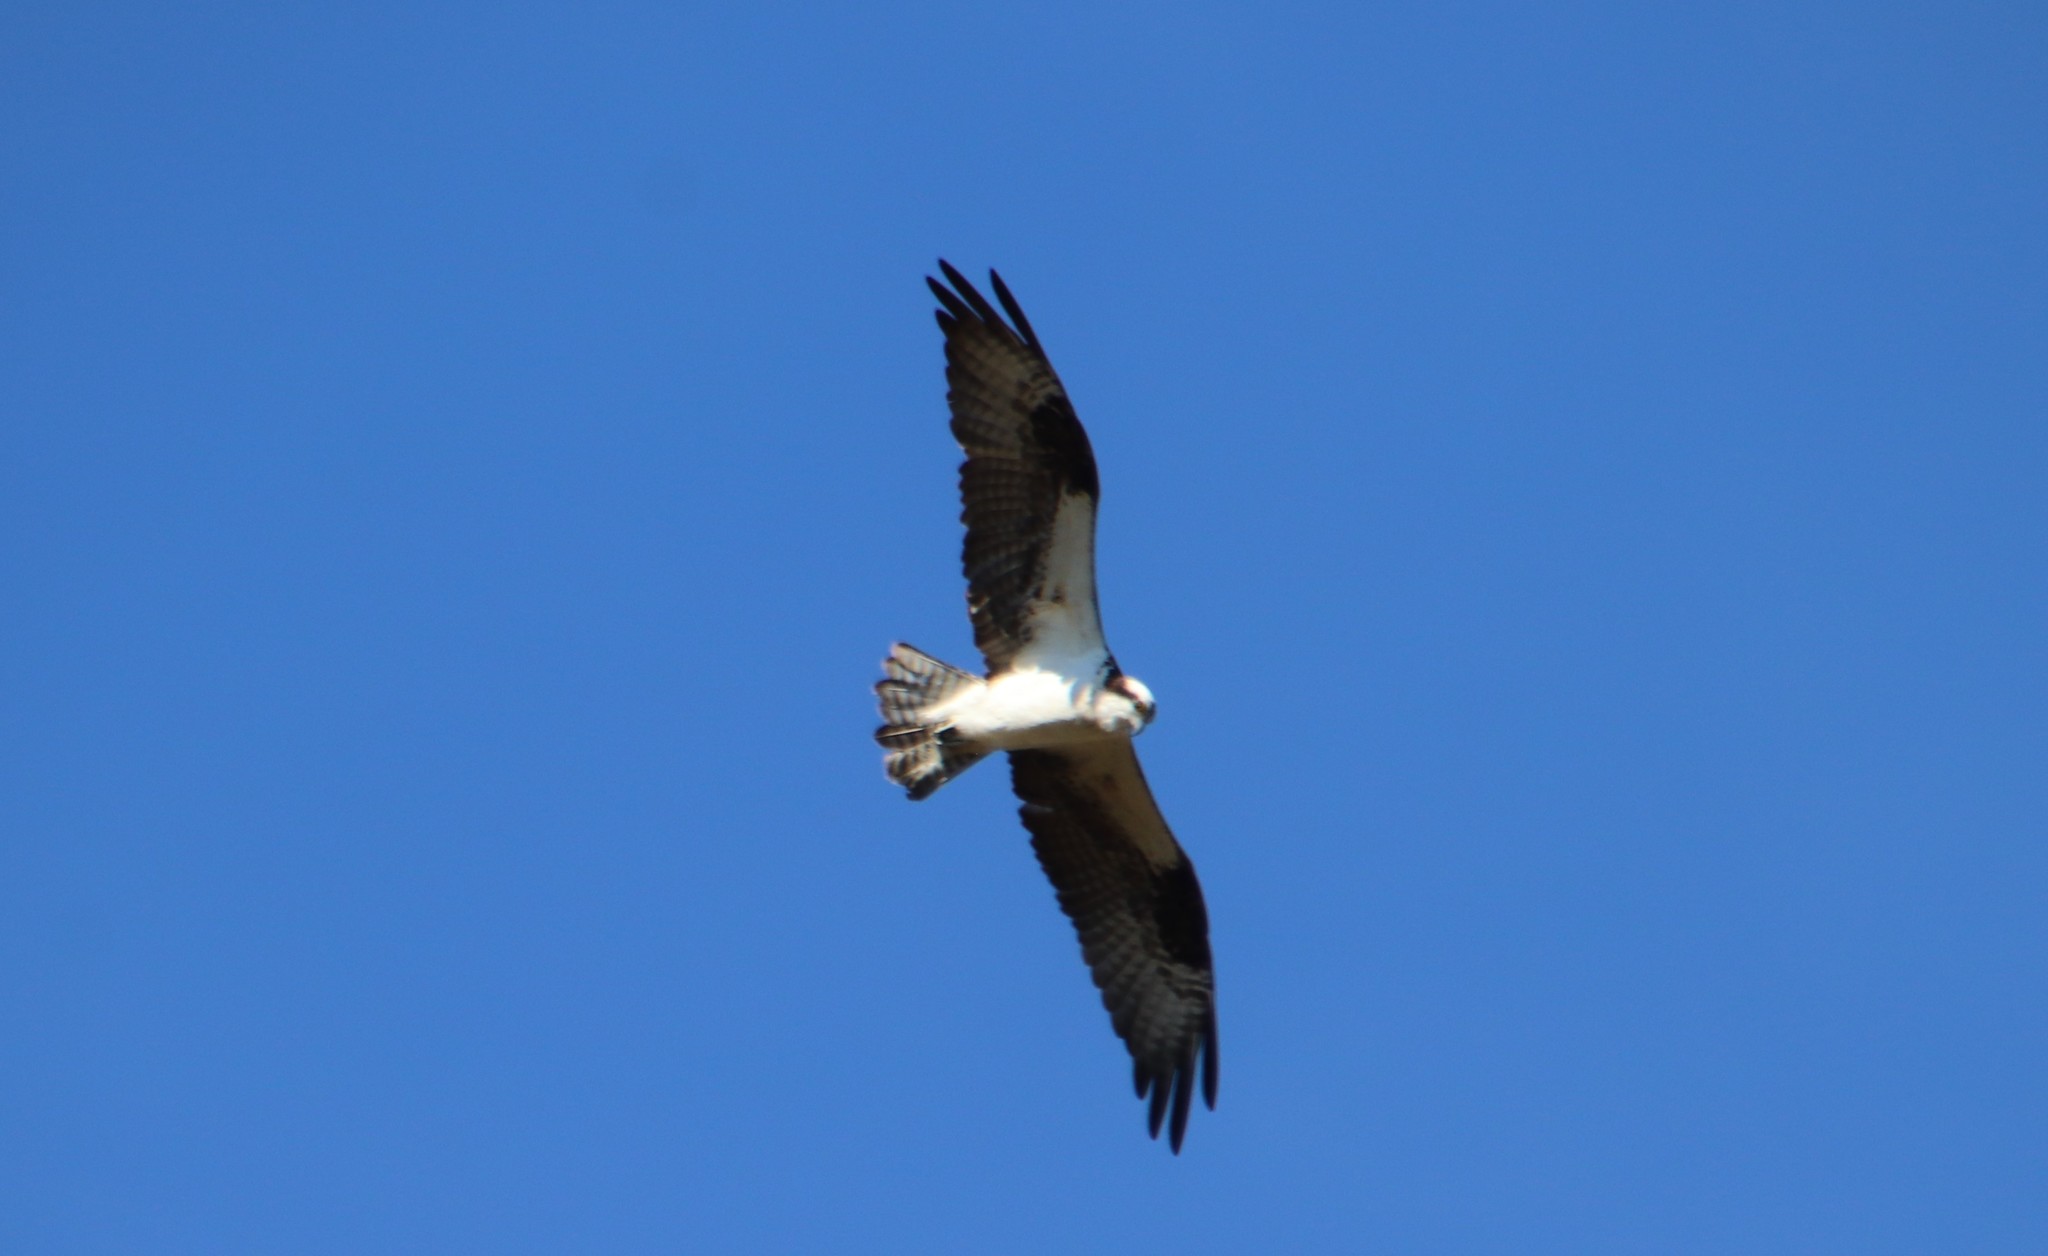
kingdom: Animalia
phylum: Chordata
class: Aves
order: Accipitriformes
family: Pandionidae
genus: Pandion
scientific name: Pandion haliaetus
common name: Osprey
